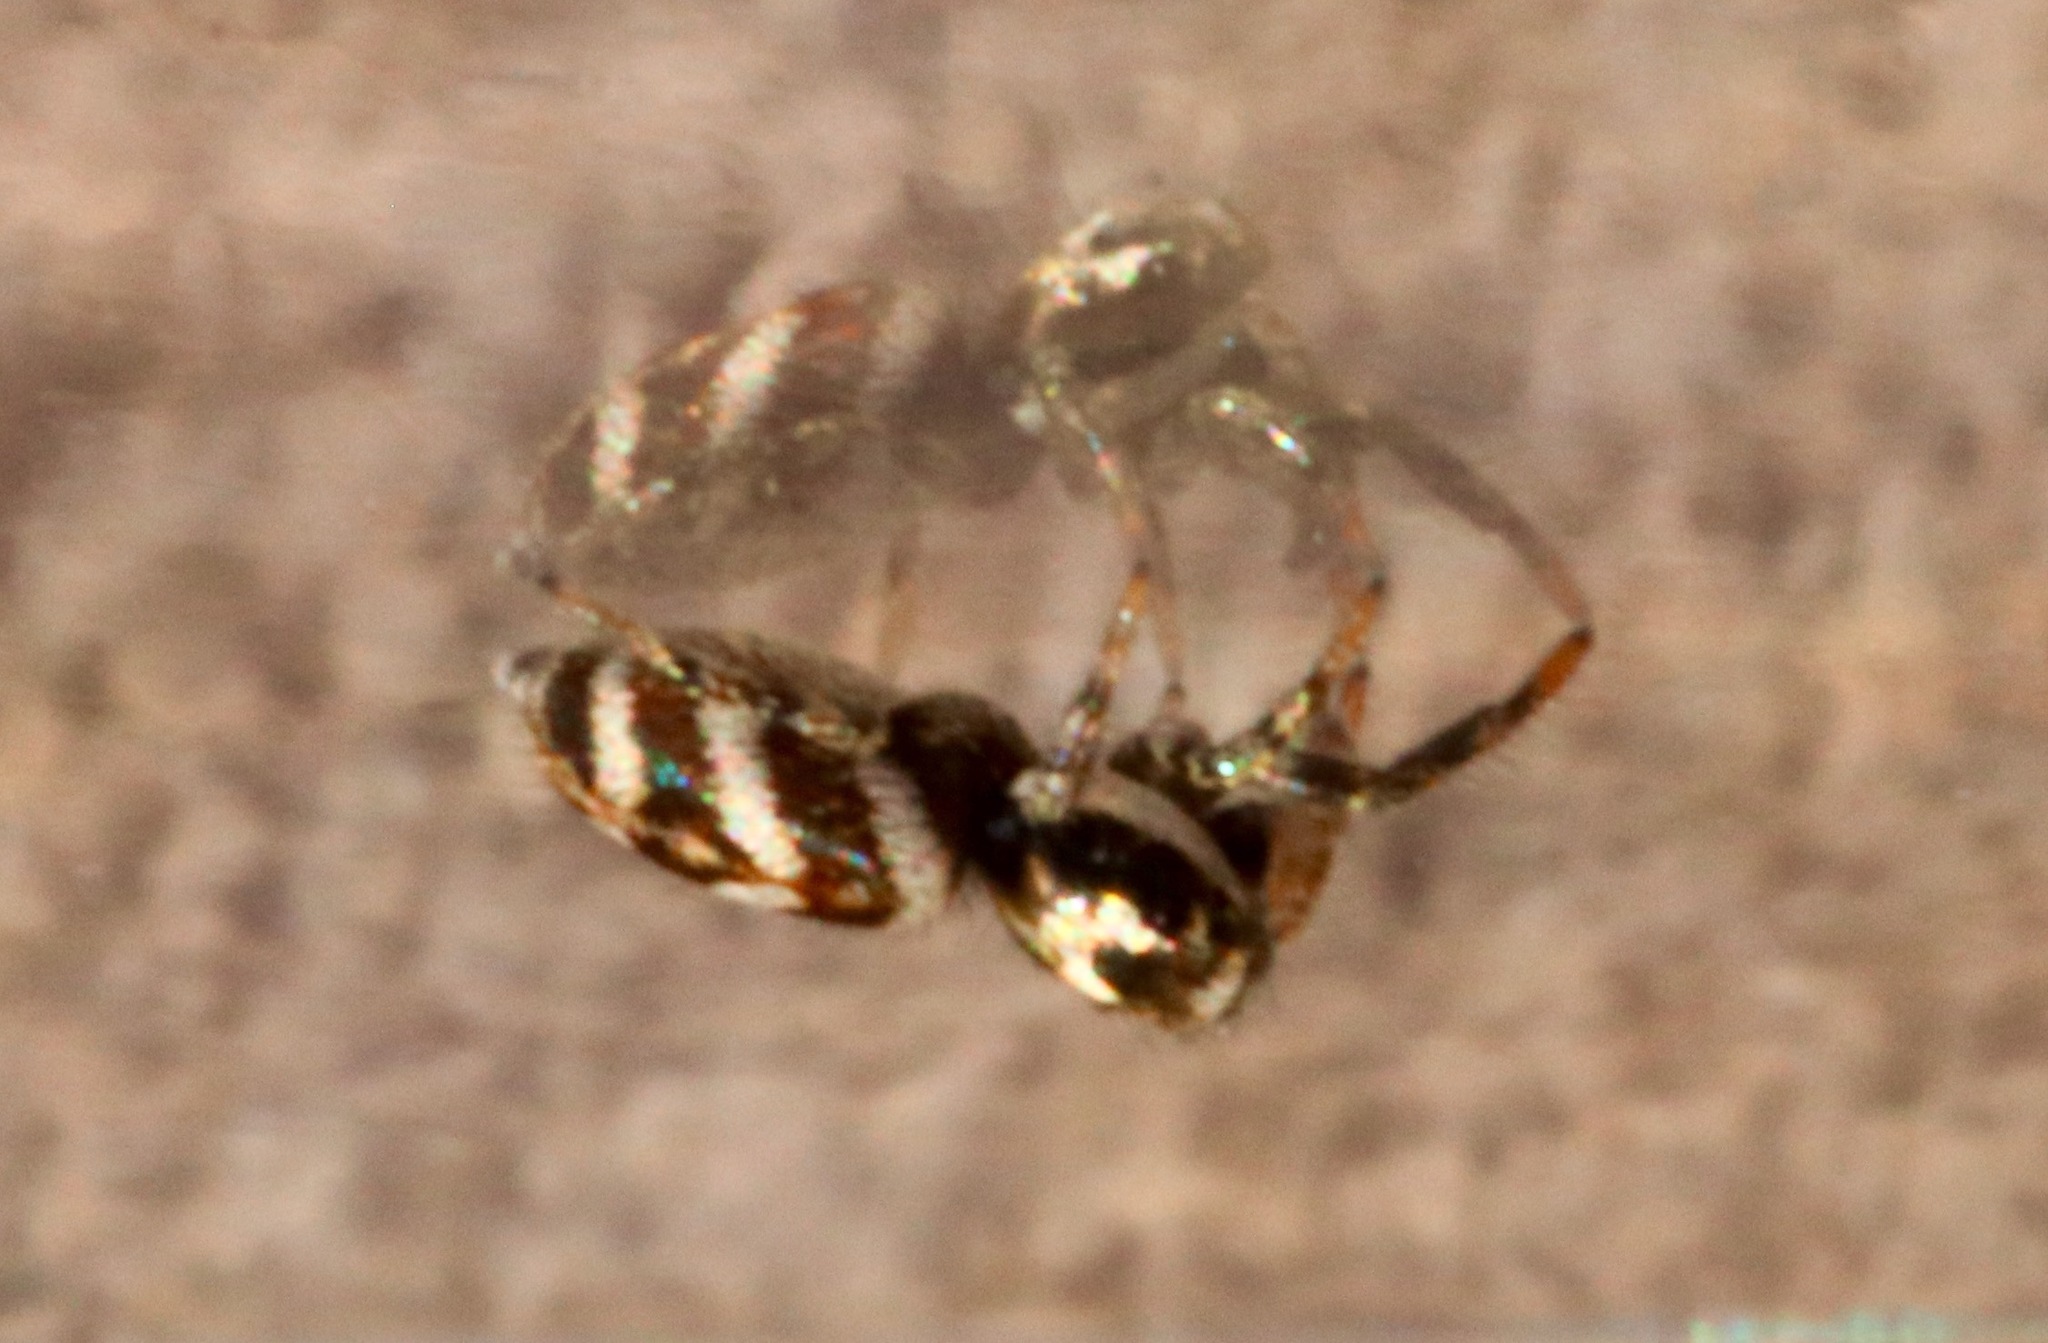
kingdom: Animalia
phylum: Arthropoda
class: Arachnida
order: Araneae
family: Salticidae
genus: Salticus
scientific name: Salticus scenicus
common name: Zebra jumper
